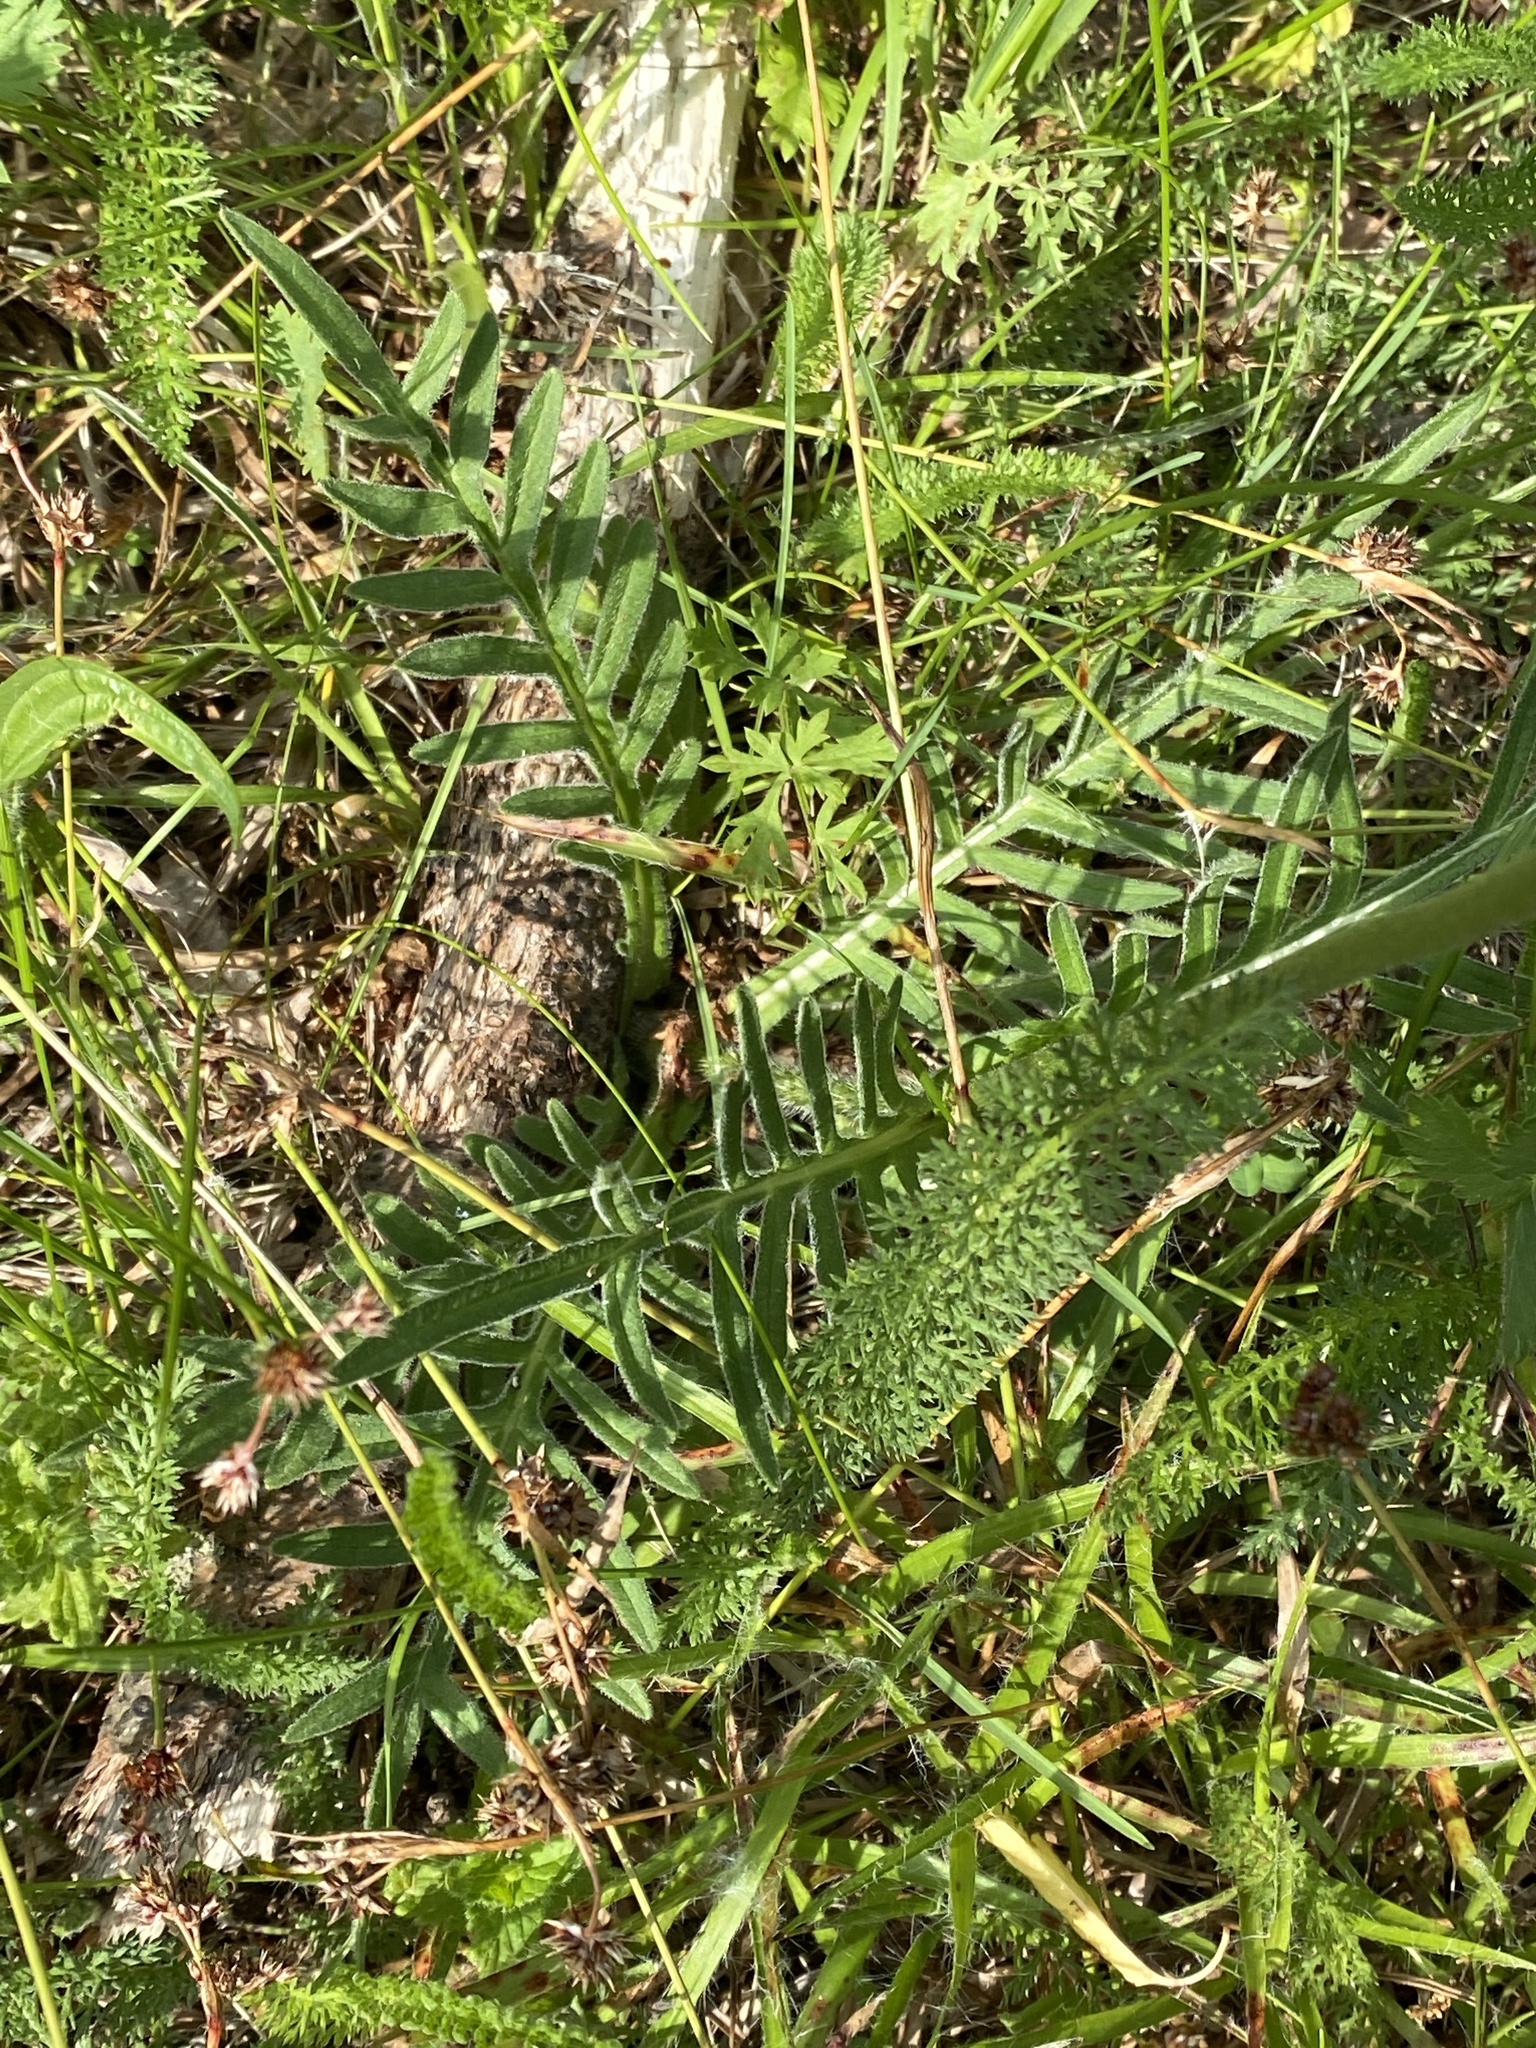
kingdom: Plantae
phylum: Tracheophyta
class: Magnoliopsida
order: Dipsacales
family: Caprifoliaceae
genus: Knautia
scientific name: Knautia arvensis
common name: Field scabiosa
